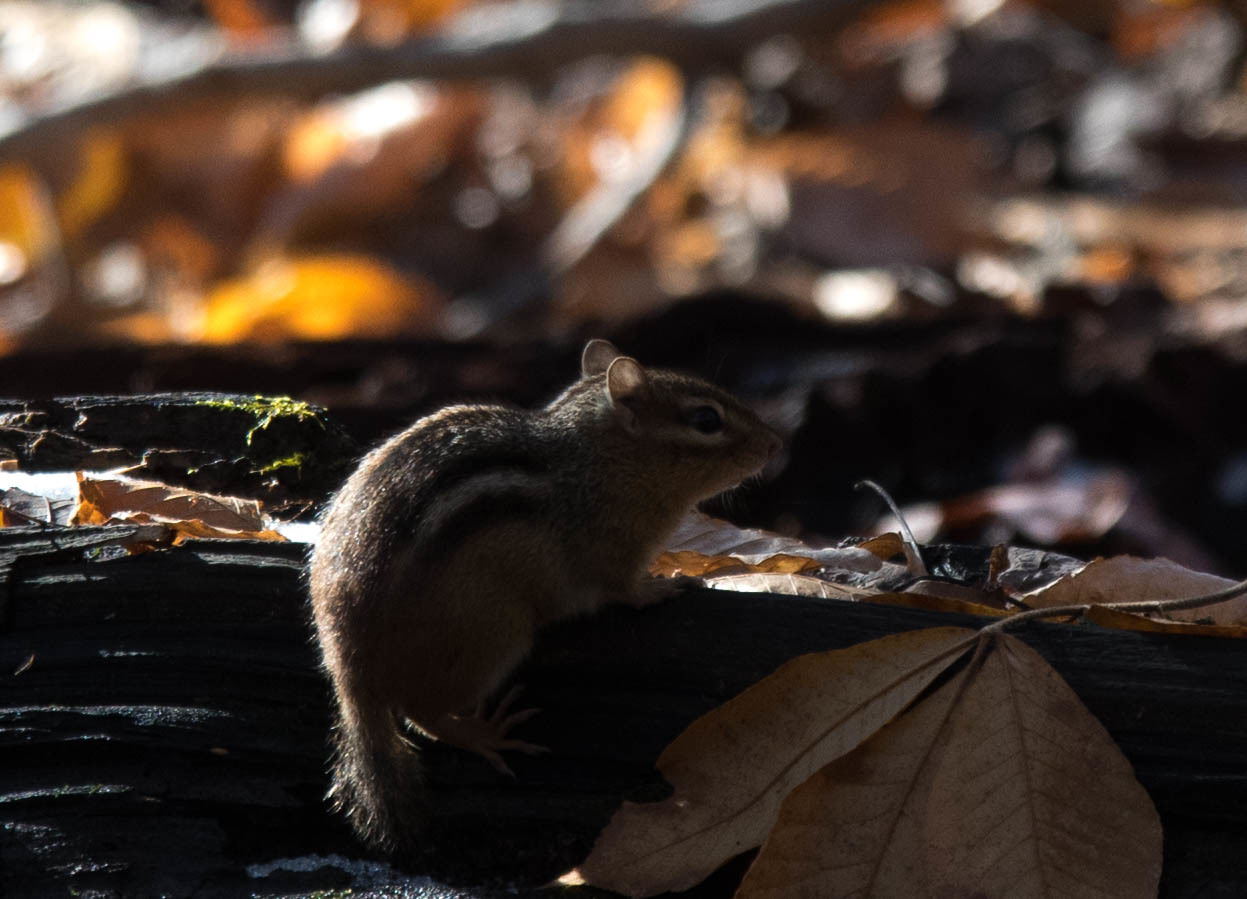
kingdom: Animalia
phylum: Chordata
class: Mammalia
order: Rodentia
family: Sciuridae
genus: Tamias
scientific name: Tamias striatus
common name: Eastern chipmunk
